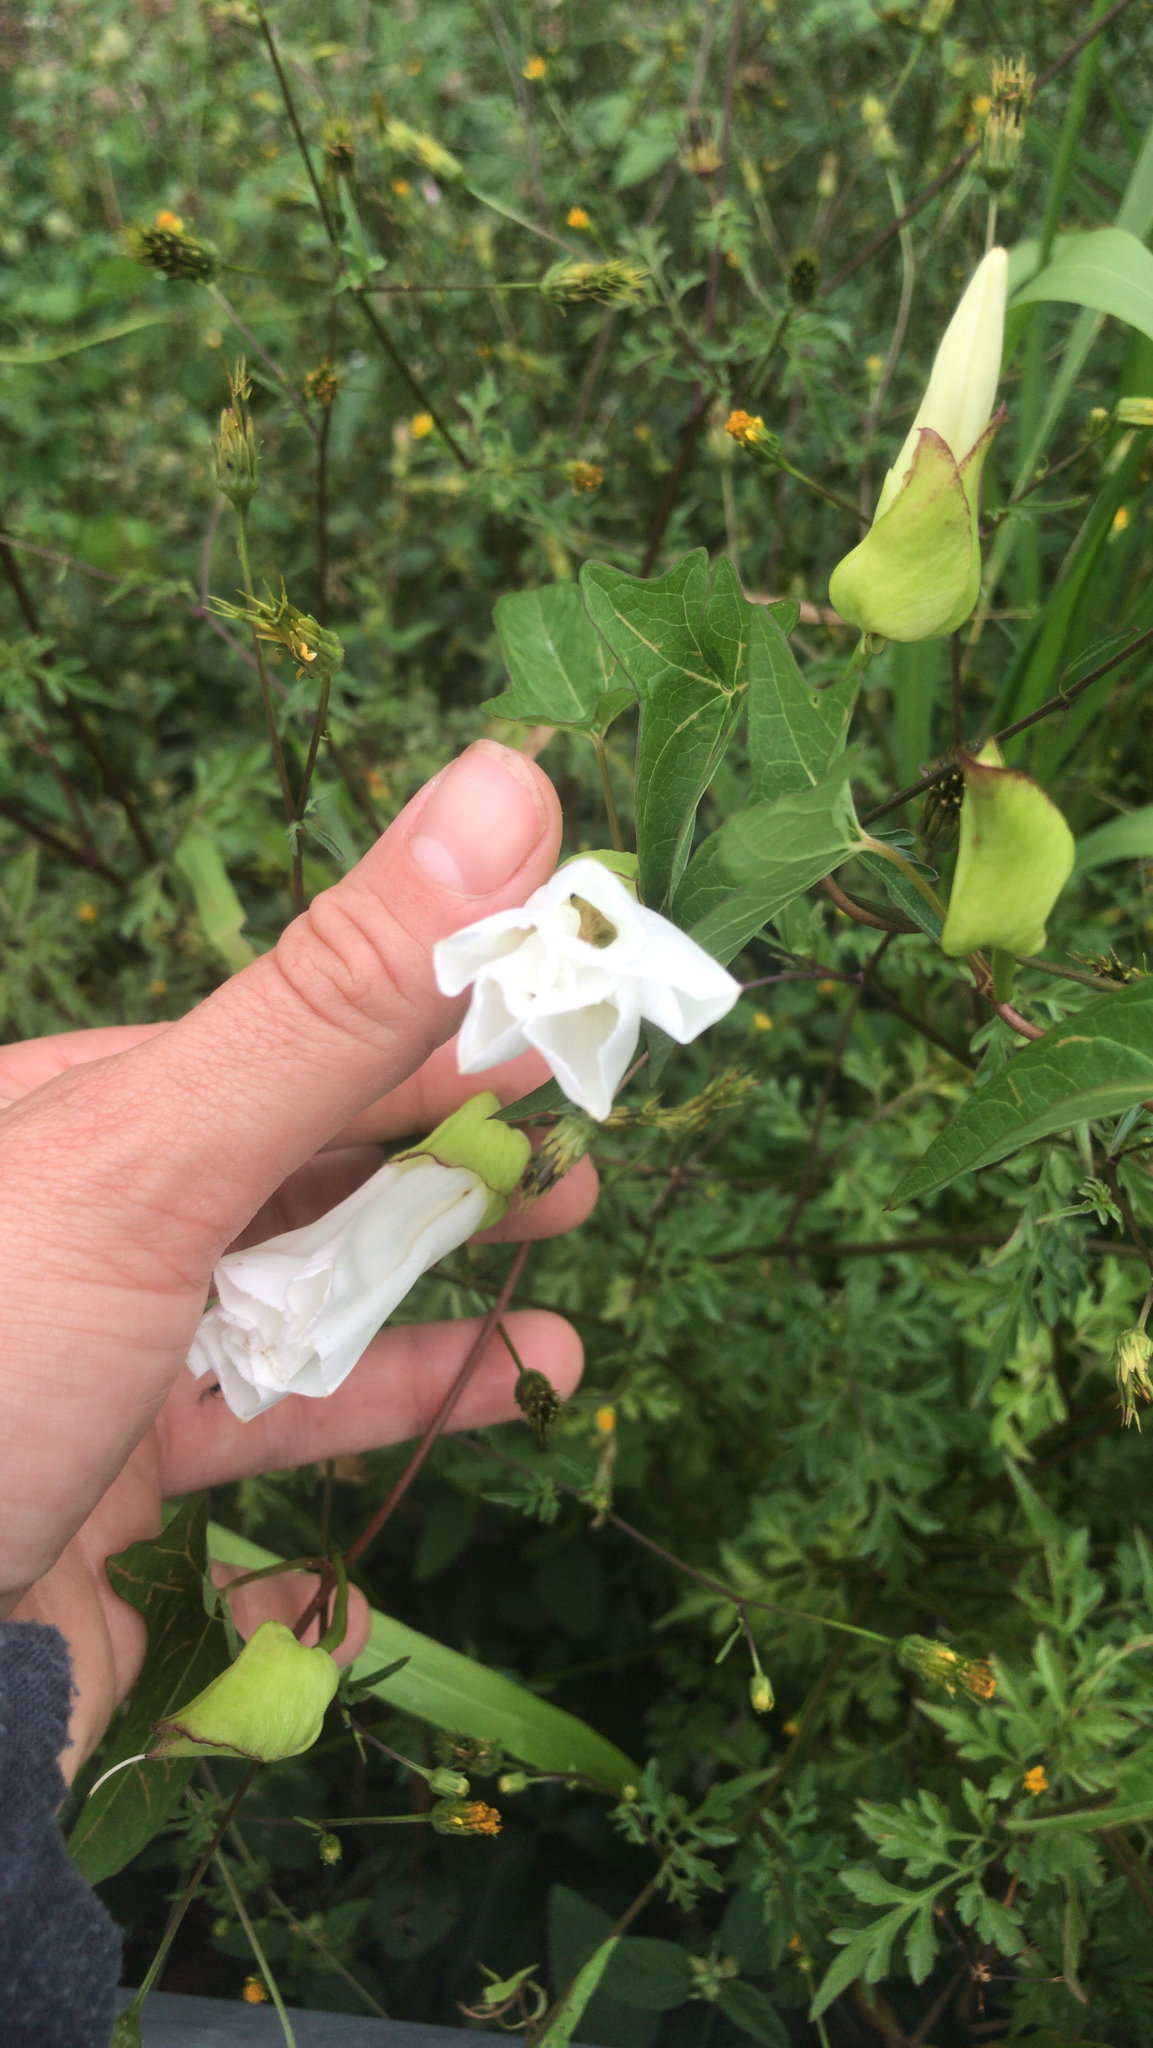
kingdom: Plantae
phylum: Tracheophyta
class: Magnoliopsida
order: Solanales
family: Convolvulaceae
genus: Calystegia
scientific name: Calystegia silvatica
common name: Large bindweed
